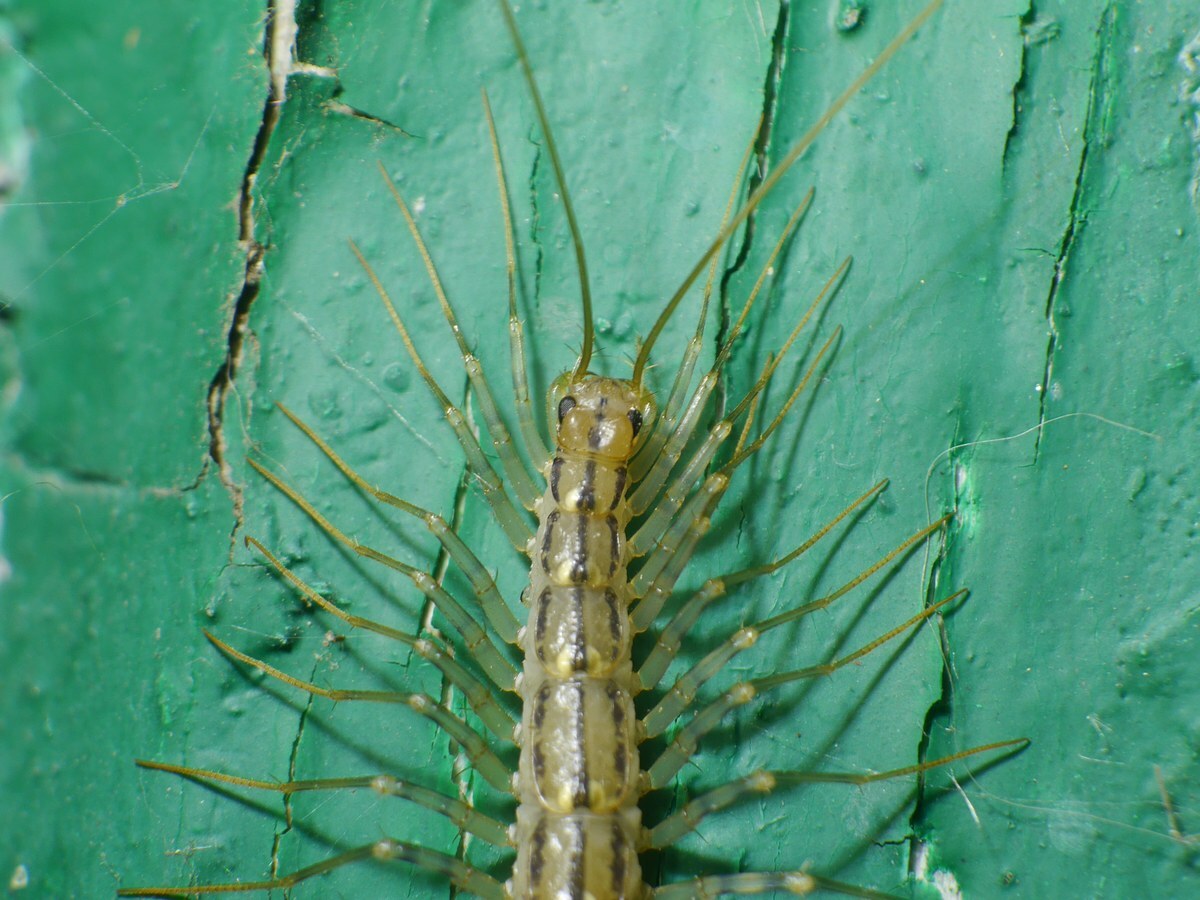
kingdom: Animalia
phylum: Arthropoda
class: Chilopoda
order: Scutigeromorpha
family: Scutigeridae
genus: Scutigera
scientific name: Scutigera coleoptrata
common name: House centipede
